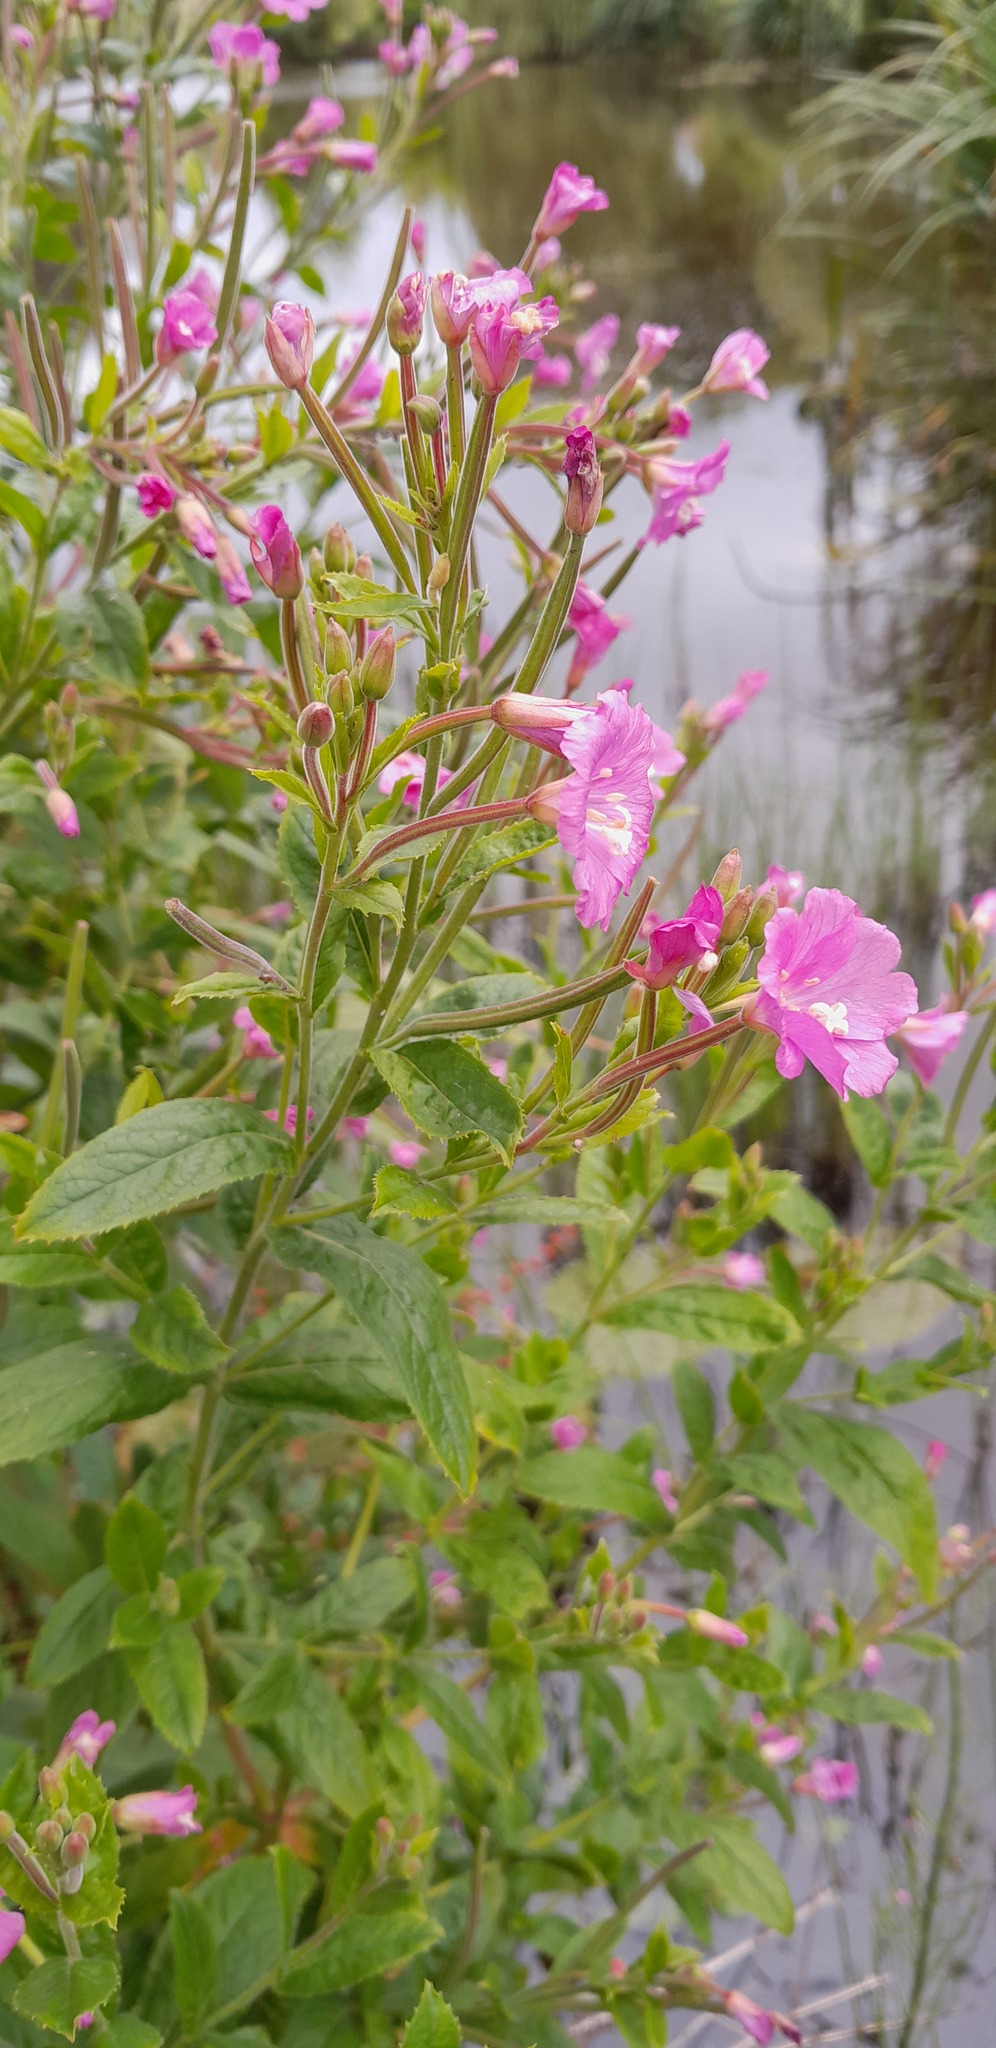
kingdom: Plantae
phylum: Tracheophyta
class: Magnoliopsida
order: Myrtales
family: Onagraceae
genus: Epilobium
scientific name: Epilobium hirsutum
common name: Great willowherb
